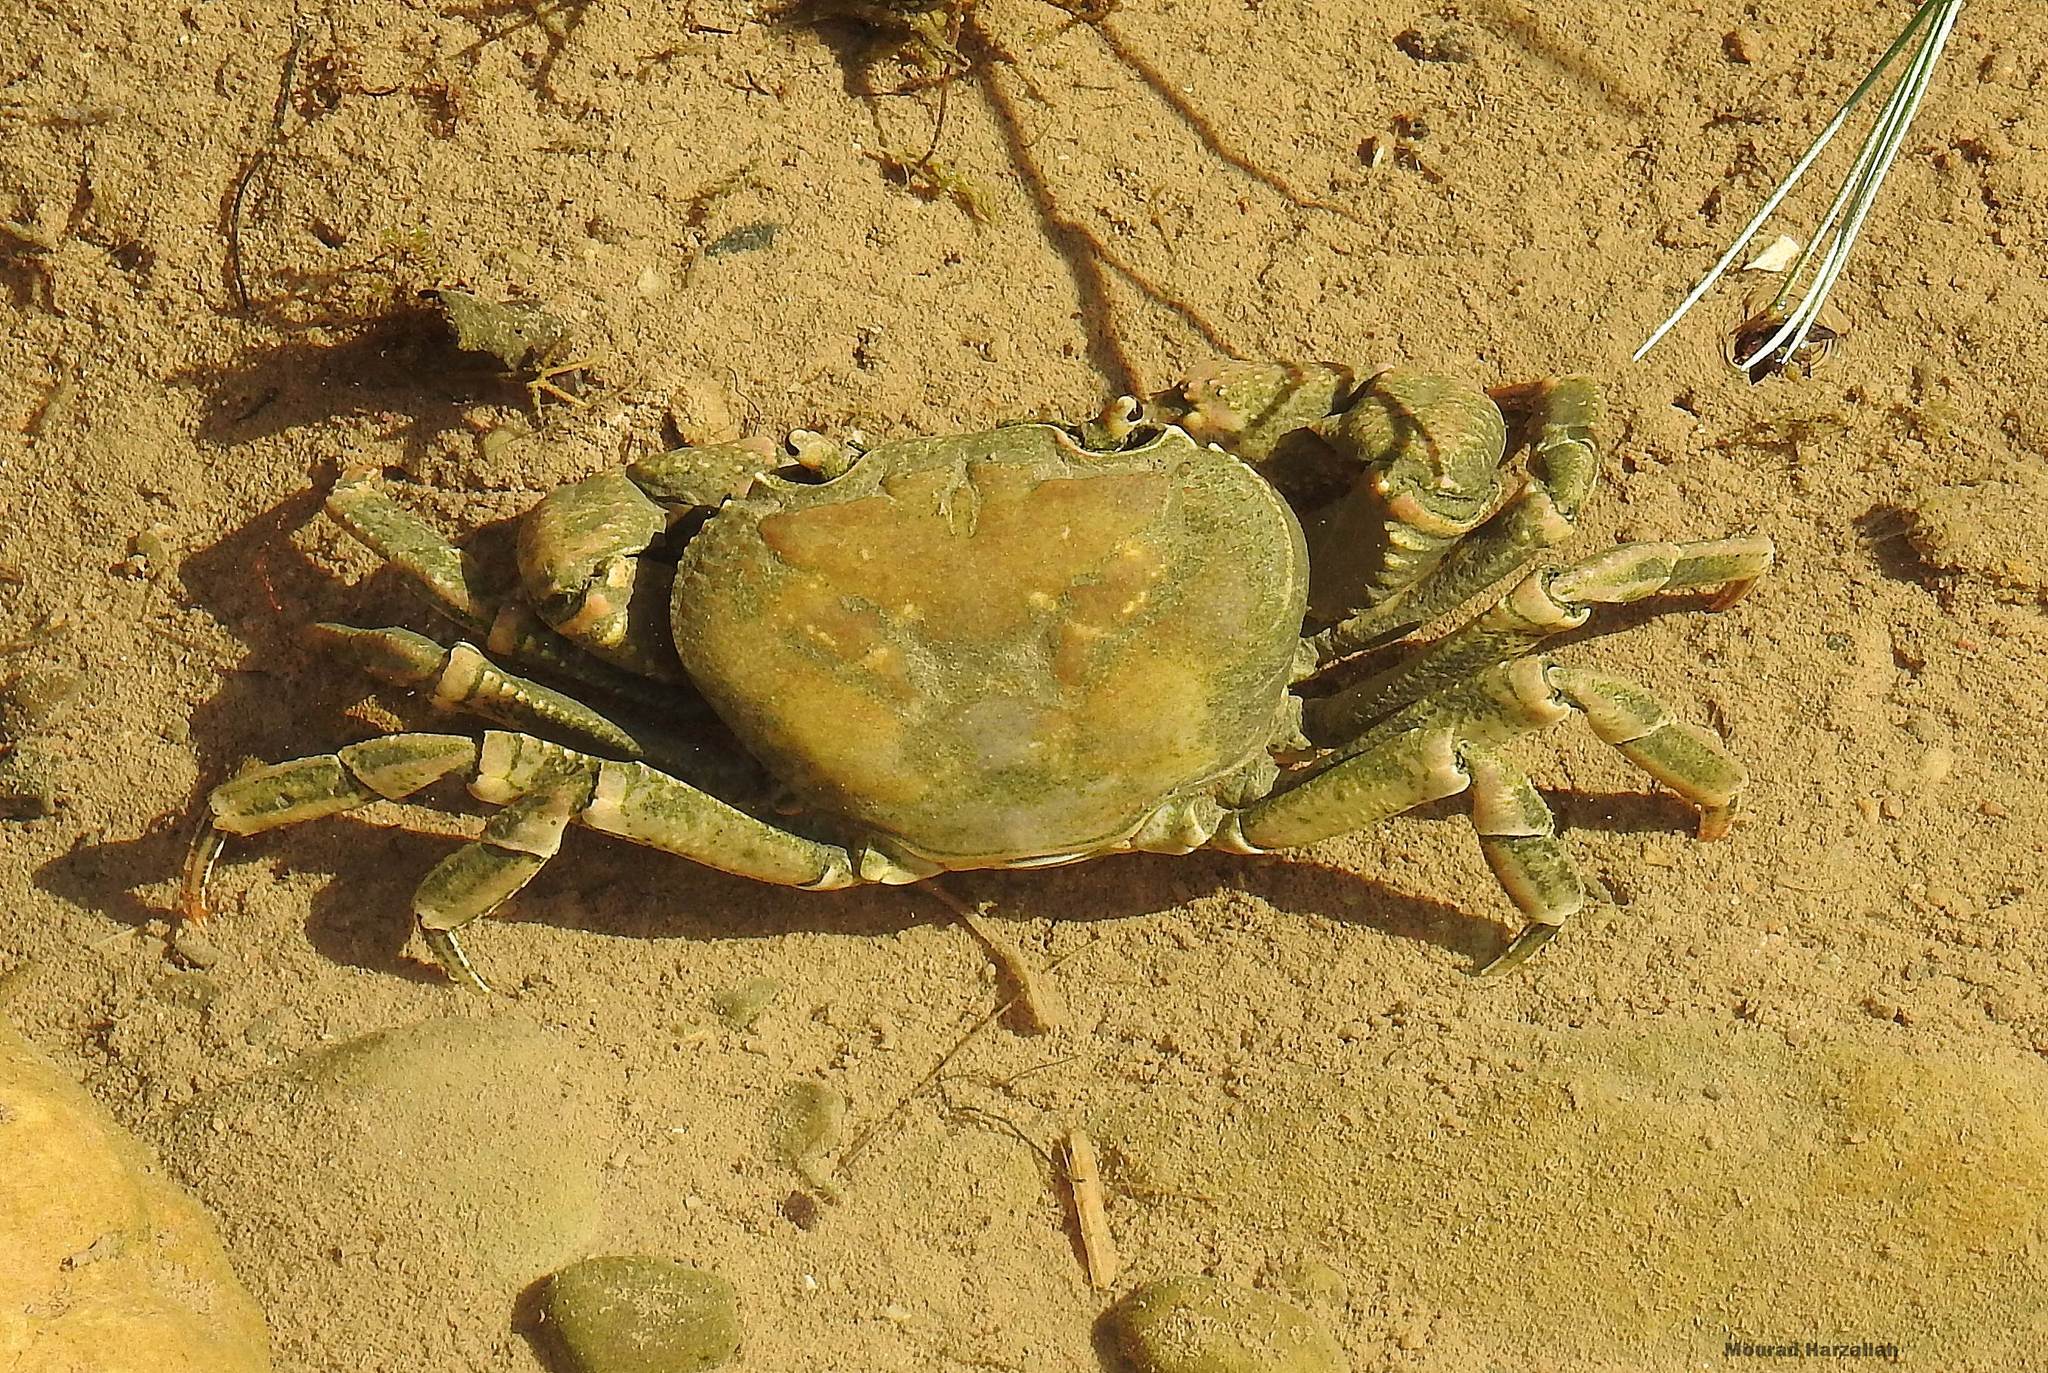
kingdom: Animalia
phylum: Arthropoda
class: Malacostraca
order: Decapoda
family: Potamidae
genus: Potamon
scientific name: Potamon algeriense
